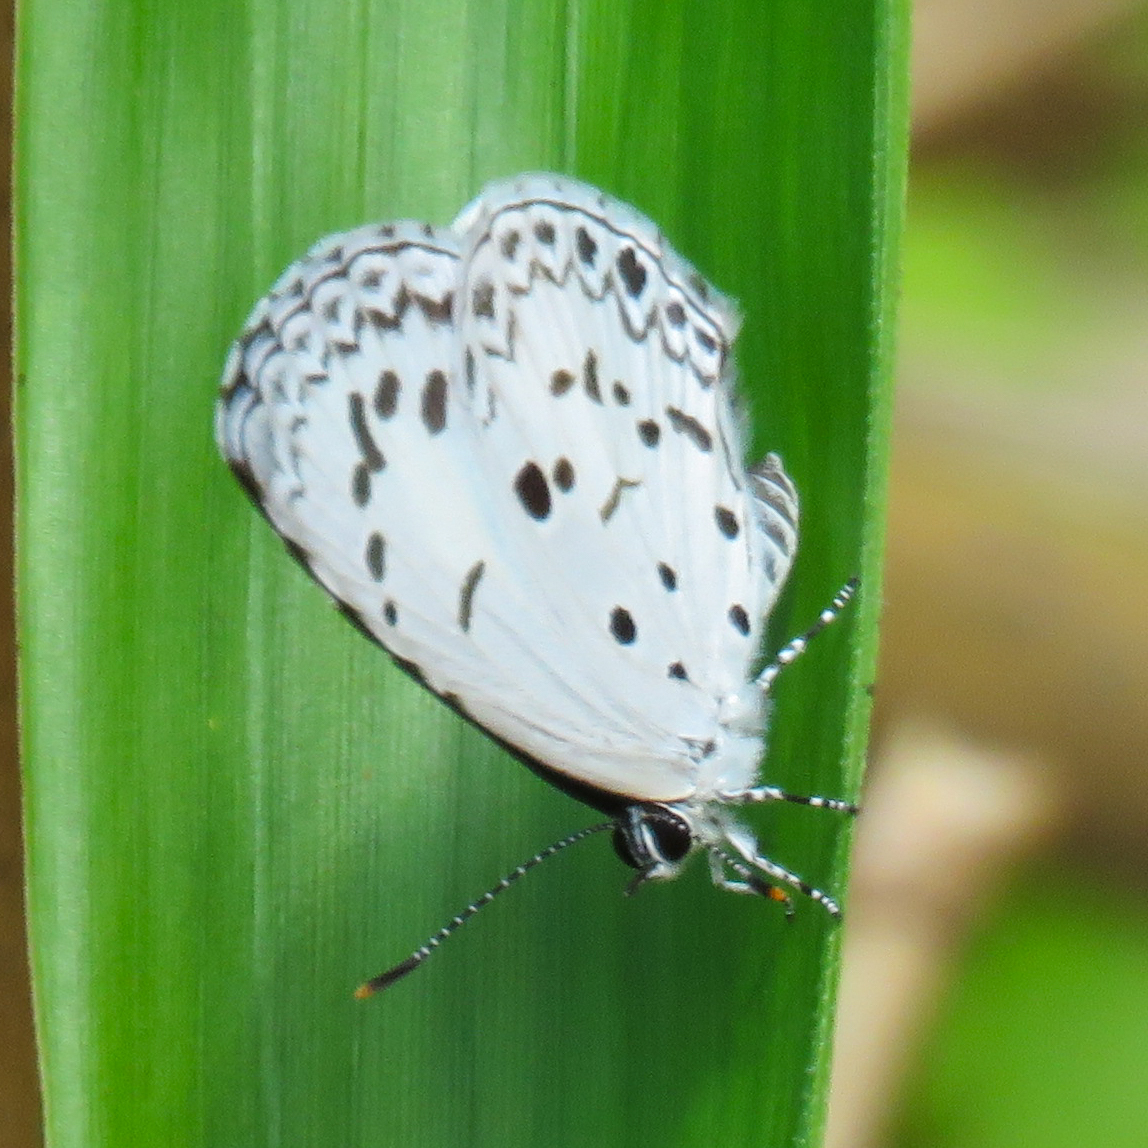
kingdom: Animalia
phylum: Arthropoda
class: Insecta
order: Lepidoptera
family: Lycaenidae
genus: Acytolepis
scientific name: Acytolepis puspa
